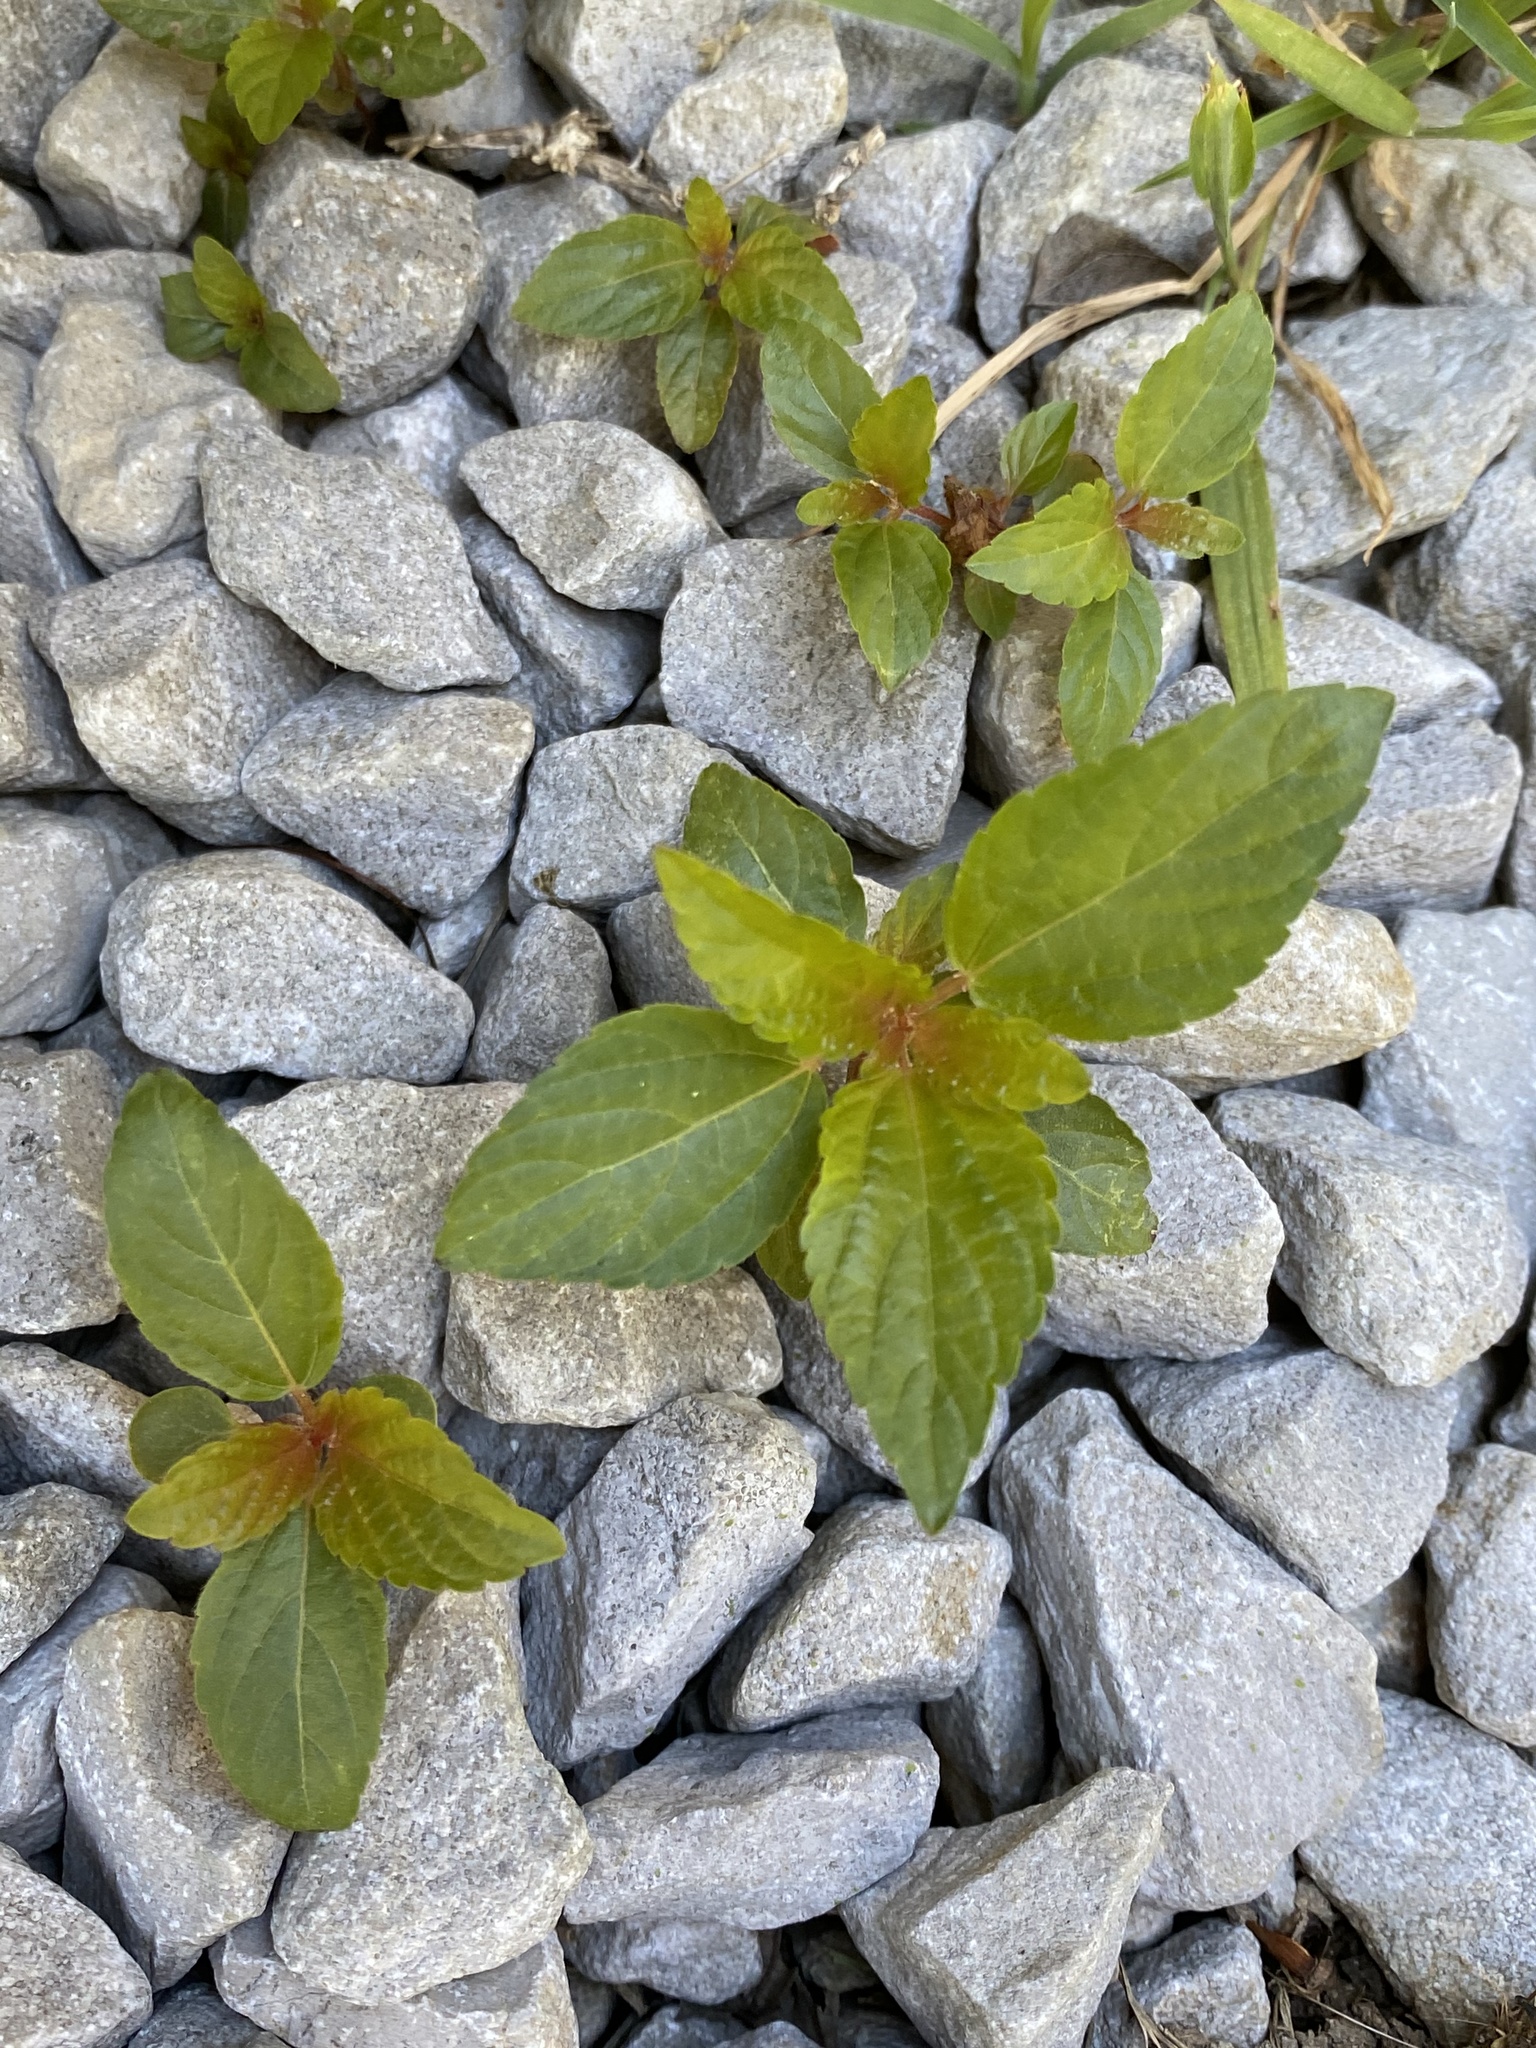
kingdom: Plantae
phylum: Tracheophyta
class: Magnoliopsida
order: Malpighiales
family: Euphorbiaceae
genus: Acalypha
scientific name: Acalypha rhomboidea
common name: Rhombic copperleaf
